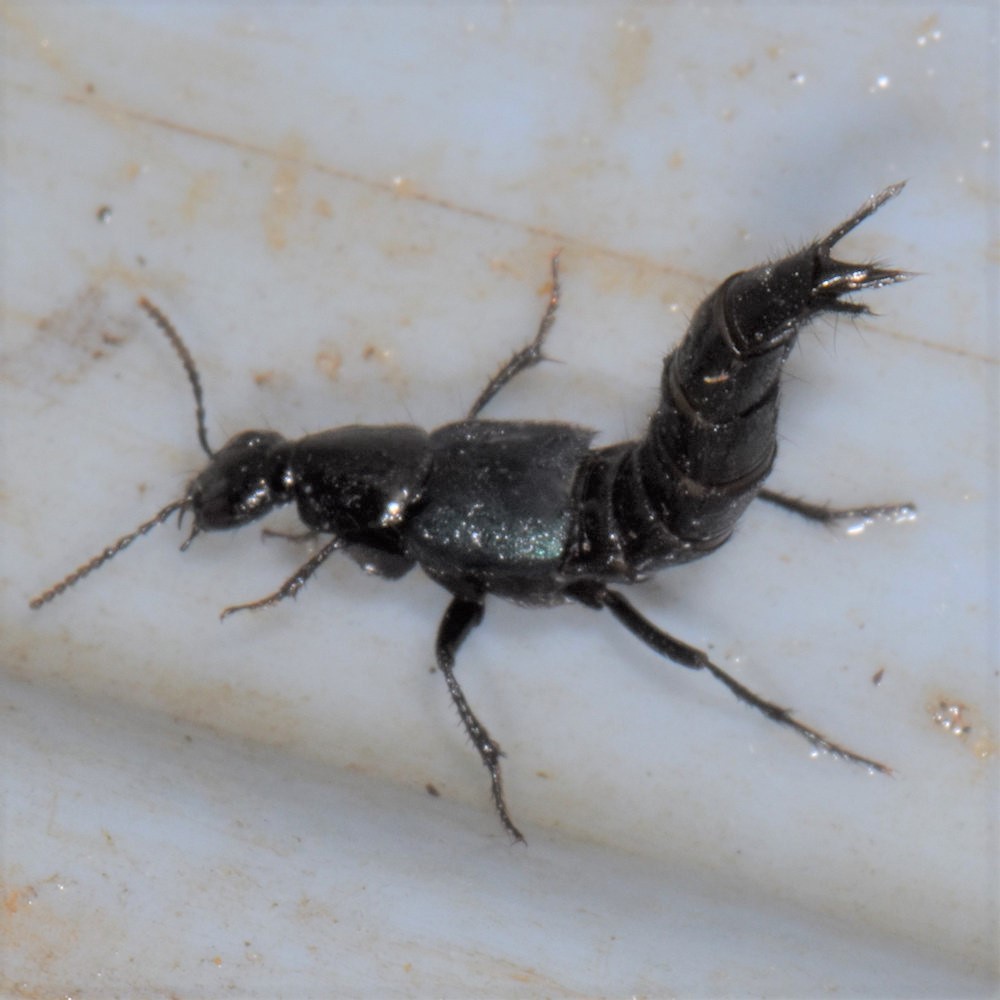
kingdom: Animalia
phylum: Arthropoda
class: Insecta
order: Coleoptera
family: Staphylinidae
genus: Philonthus
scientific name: Philonthus caeruleipennis
